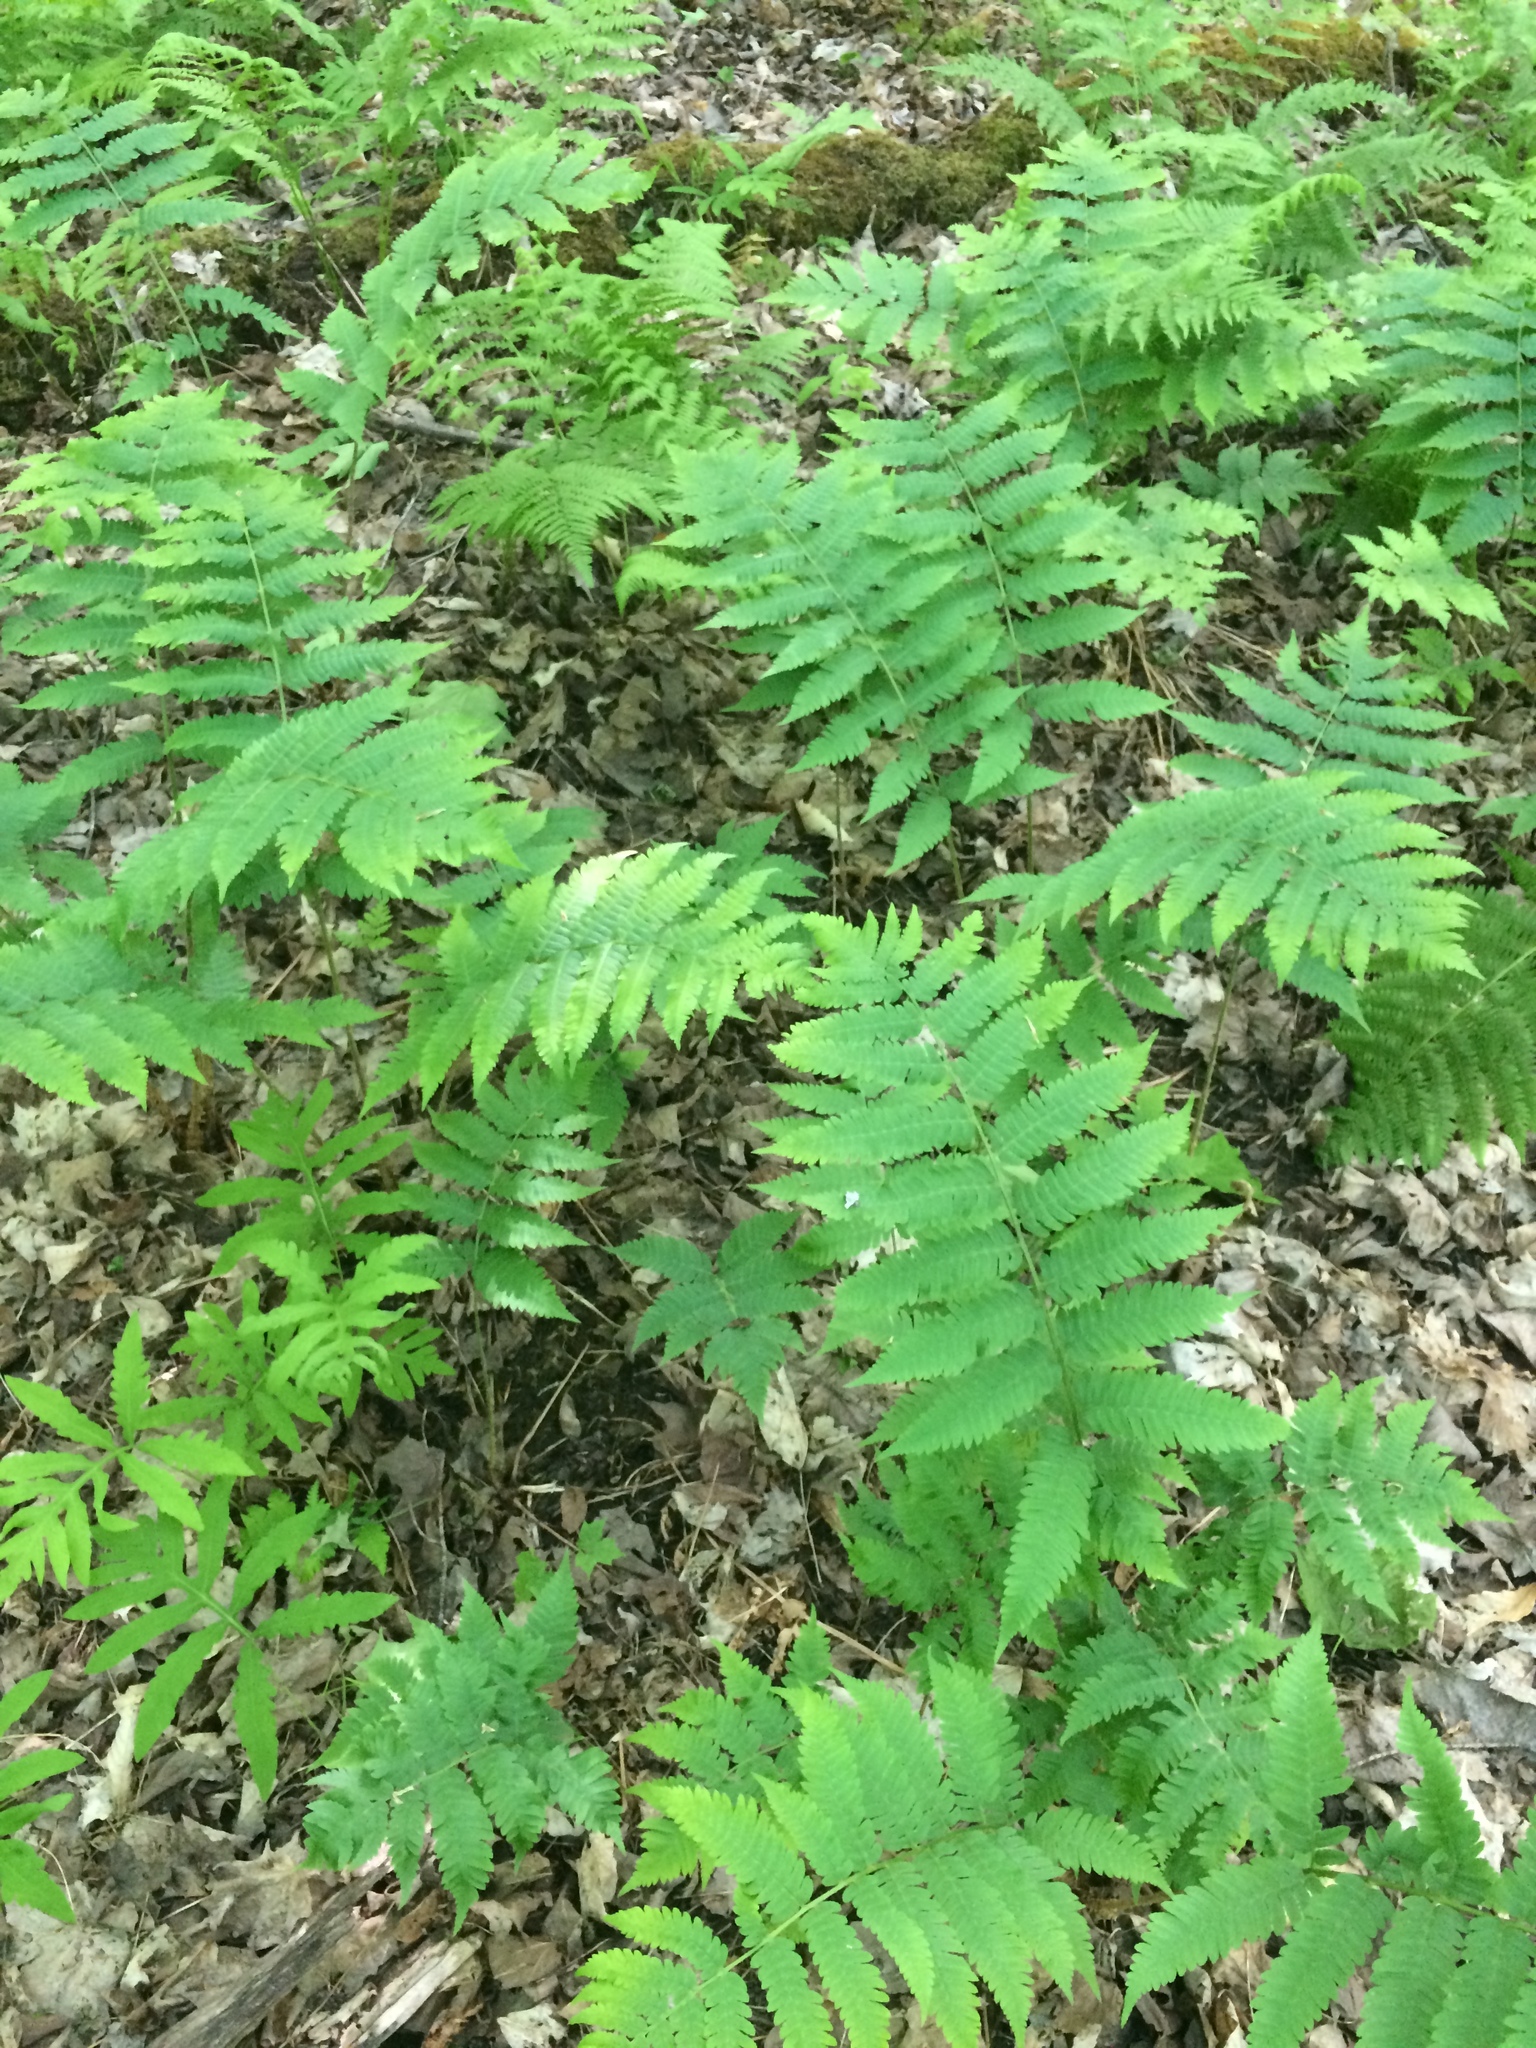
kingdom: Plantae
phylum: Tracheophyta
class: Polypodiopsida
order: Polypodiales
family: Dryopteridaceae
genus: Dryopteris
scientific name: Dryopteris goldieana
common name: Goldie's fern
